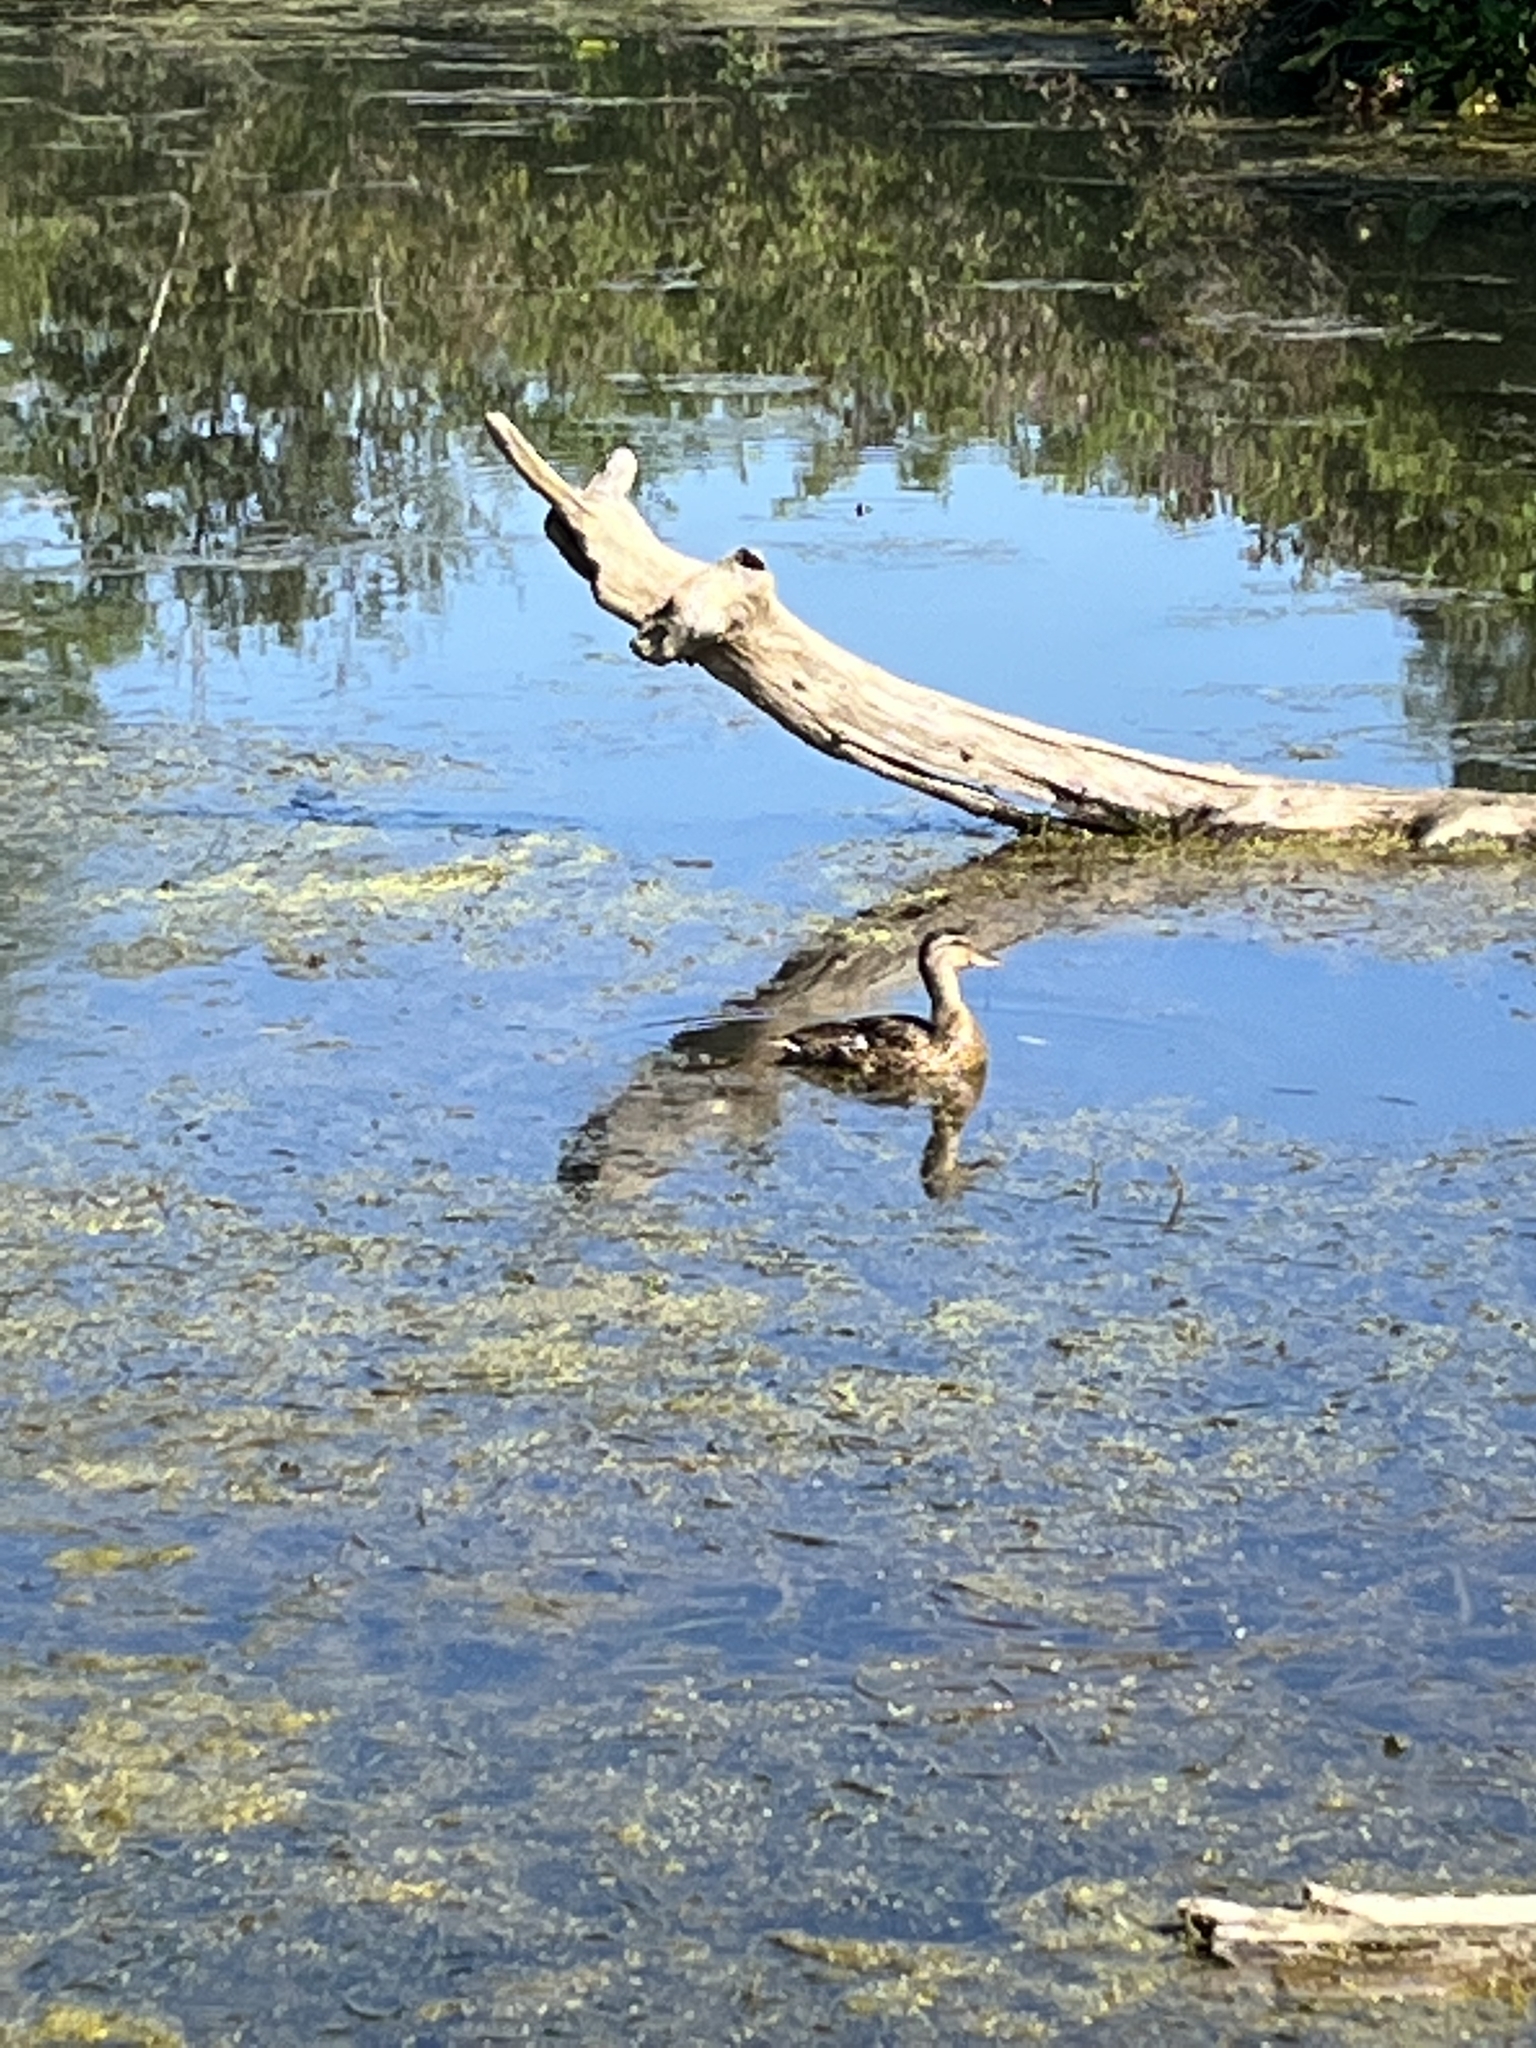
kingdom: Animalia
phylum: Chordata
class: Aves
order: Anseriformes
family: Anatidae
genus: Anas
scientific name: Anas platyrhynchos
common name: Mallard
